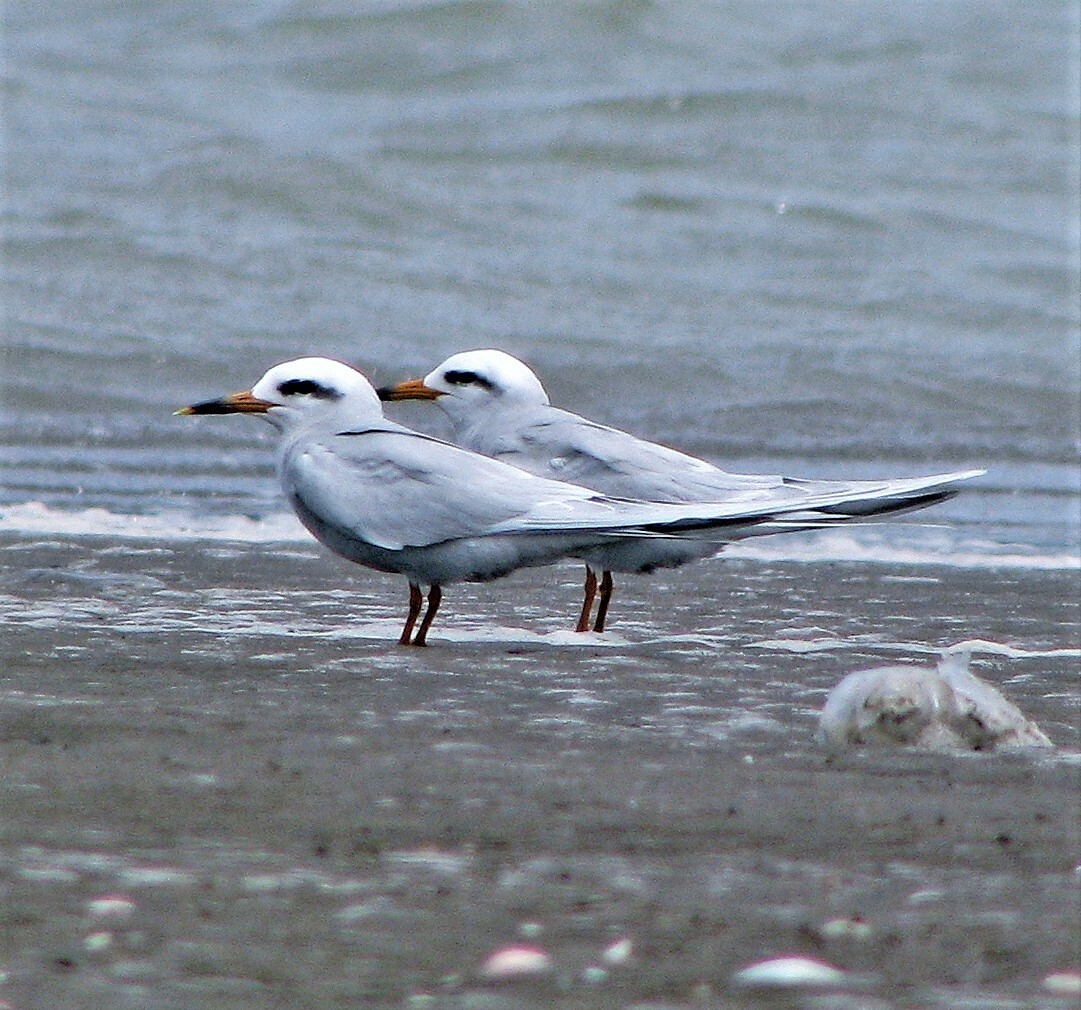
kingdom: Animalia
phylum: Chordata
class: Aves
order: Charadriiformes
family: Laridae
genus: Sterna
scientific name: Sterna trudeaui
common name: Snowy-crowned tern
